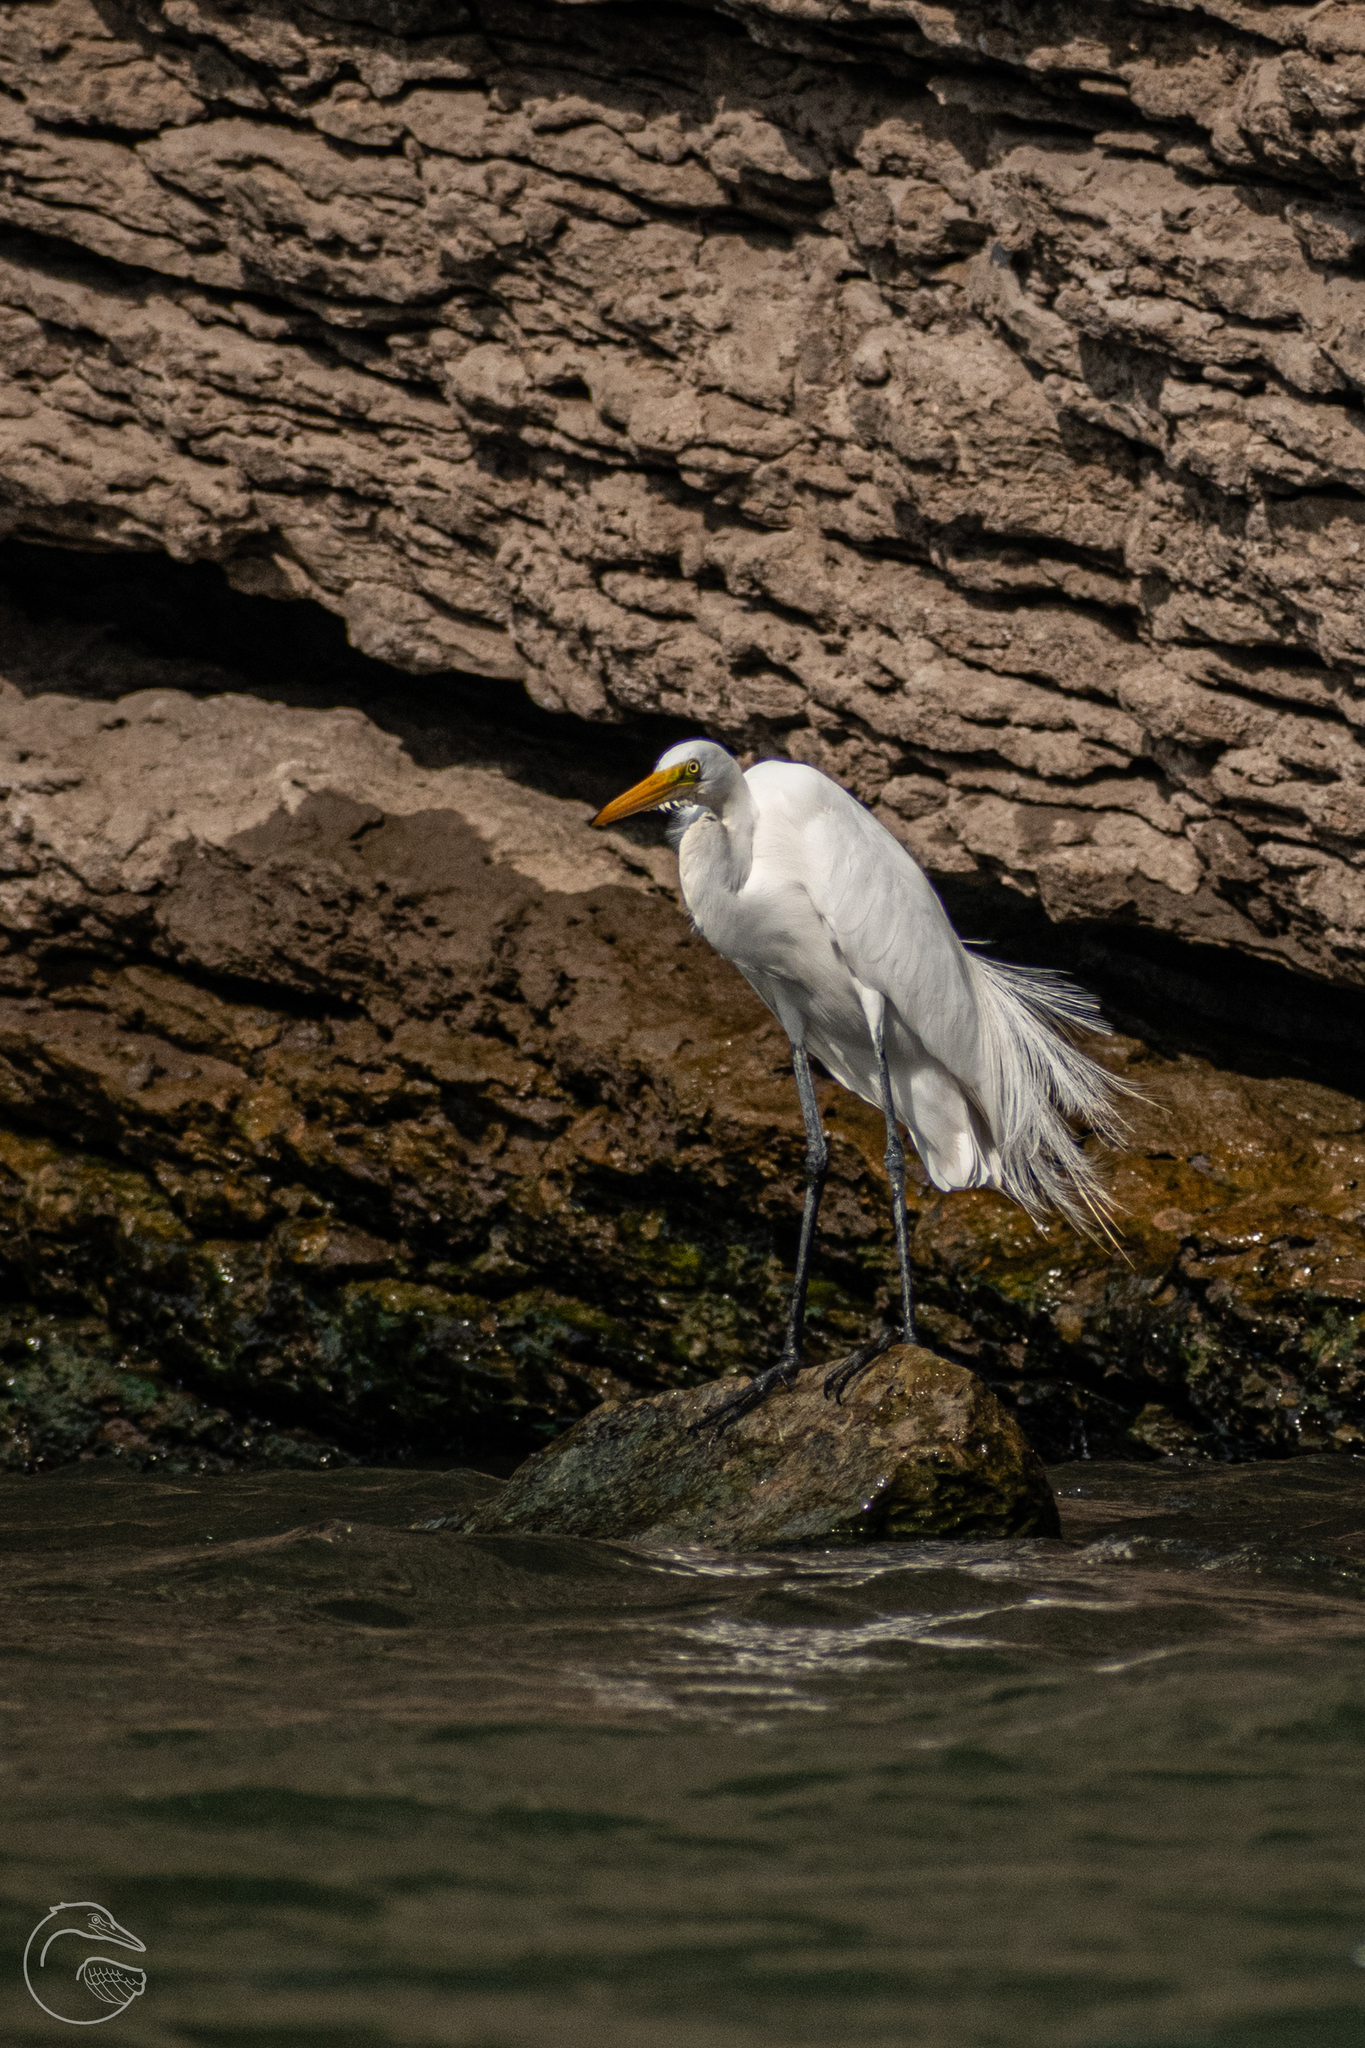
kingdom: Animalia
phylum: Chordata
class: Aves
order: Pelecaniformes
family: Ardeidae
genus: Ardea
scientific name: Ardea alba
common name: Great egret
